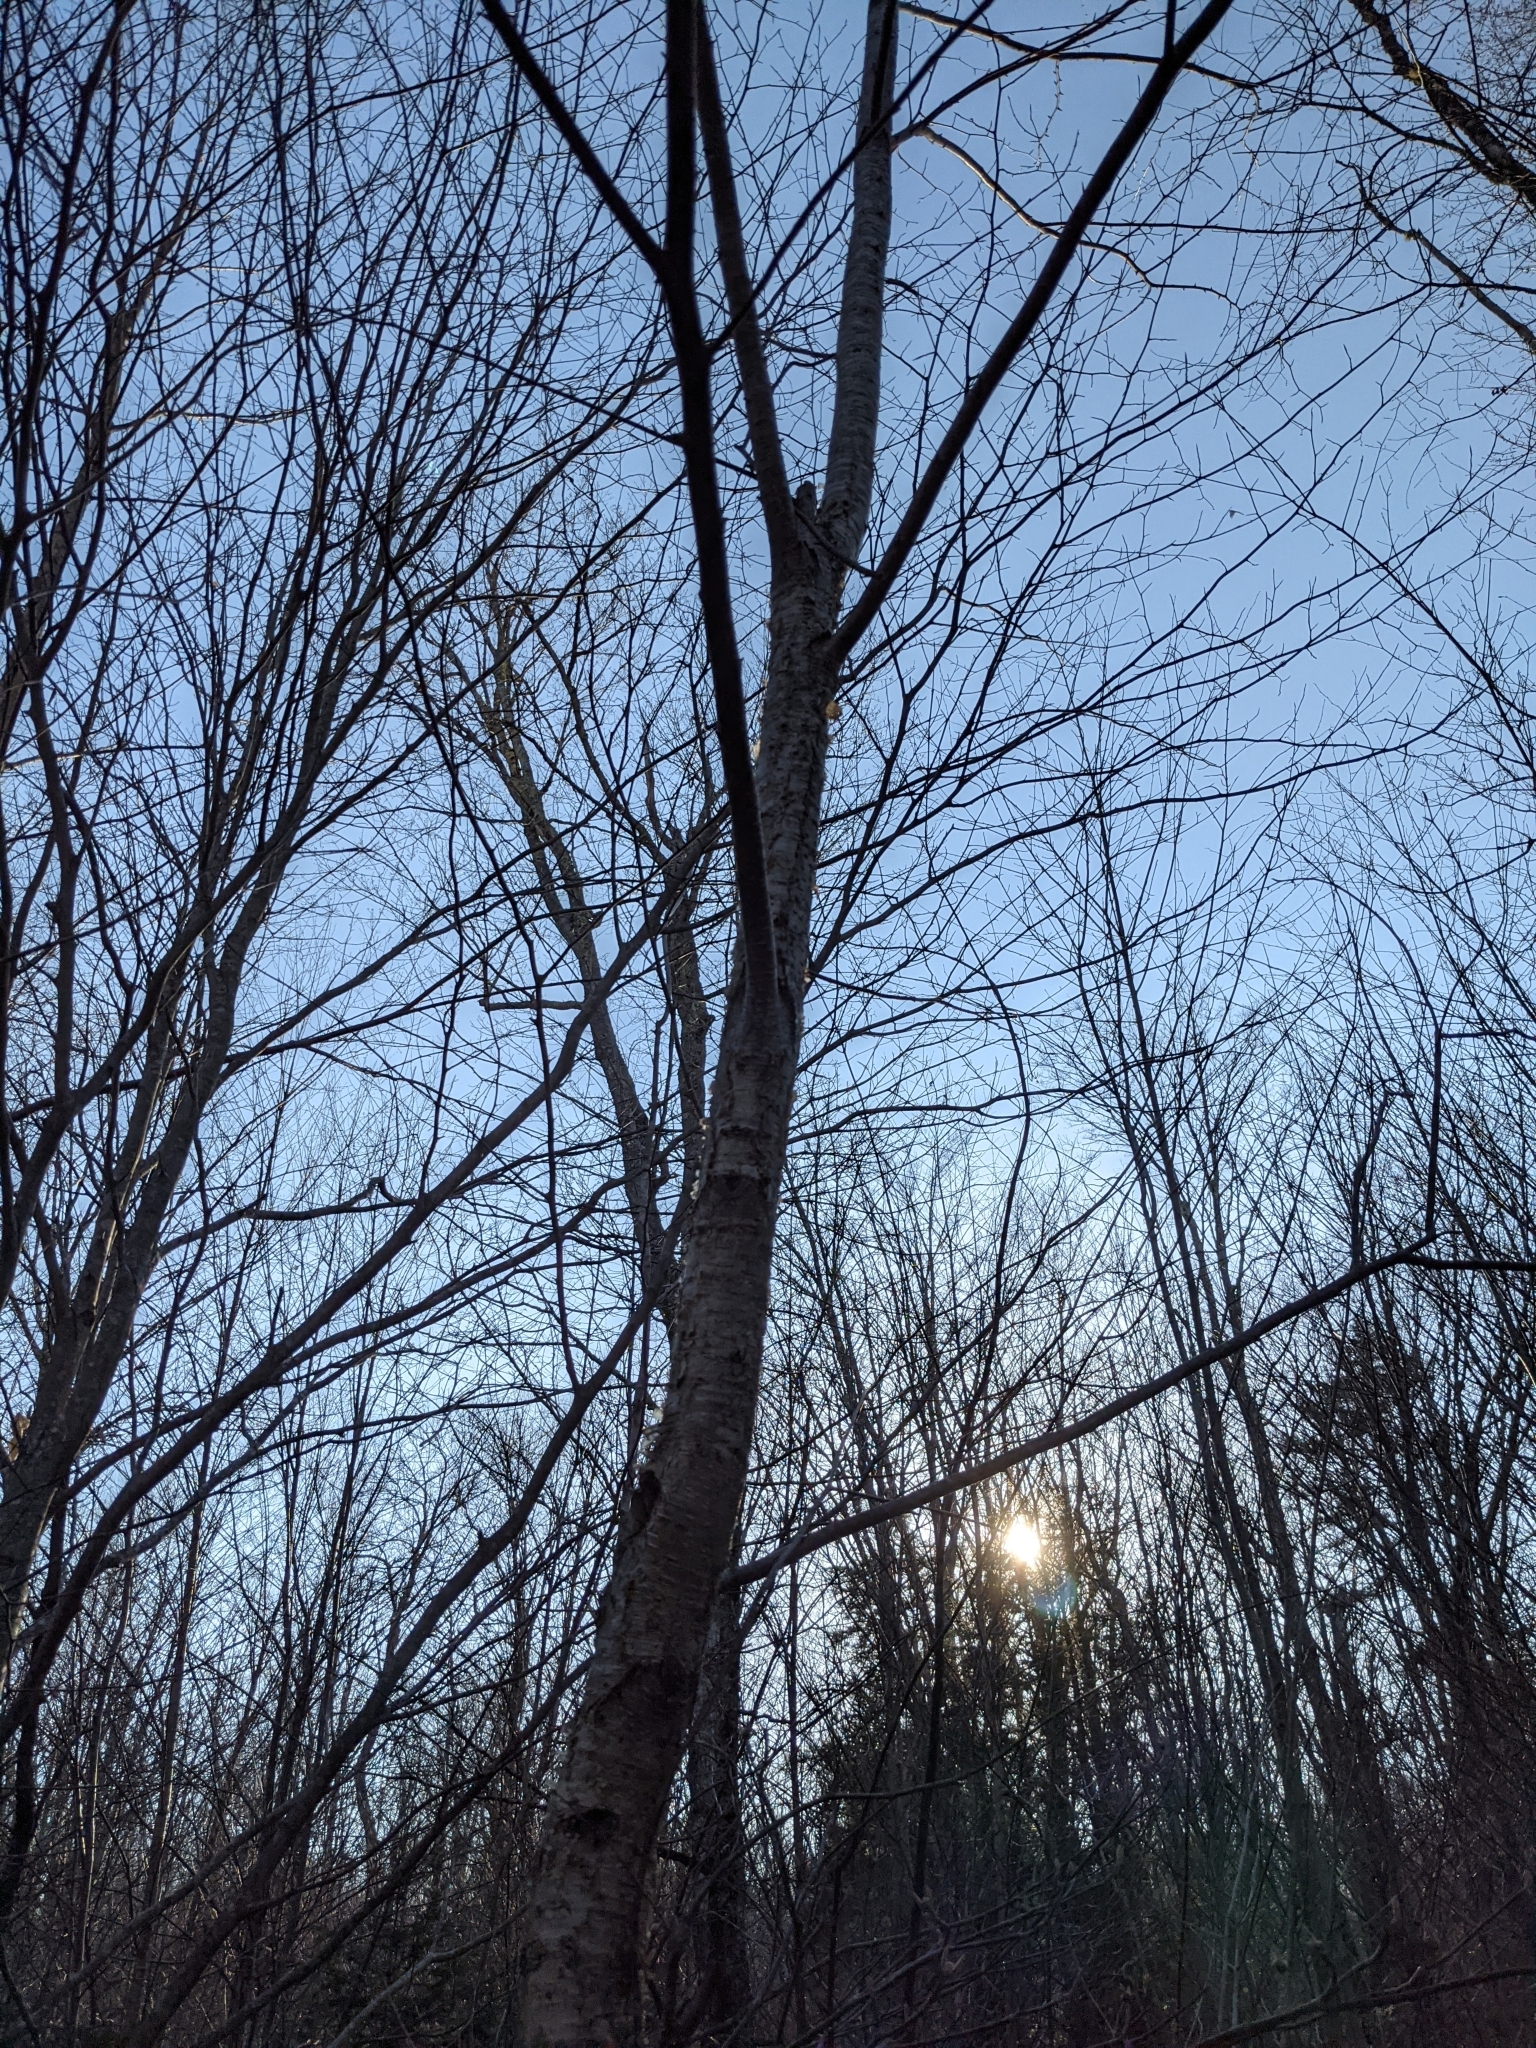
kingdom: Plantae
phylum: Tracheophyta
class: Magnoliopsida
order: Fagales
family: Betulaceae
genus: Betula
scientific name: Betula alleghaniensis
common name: Yellow birch
